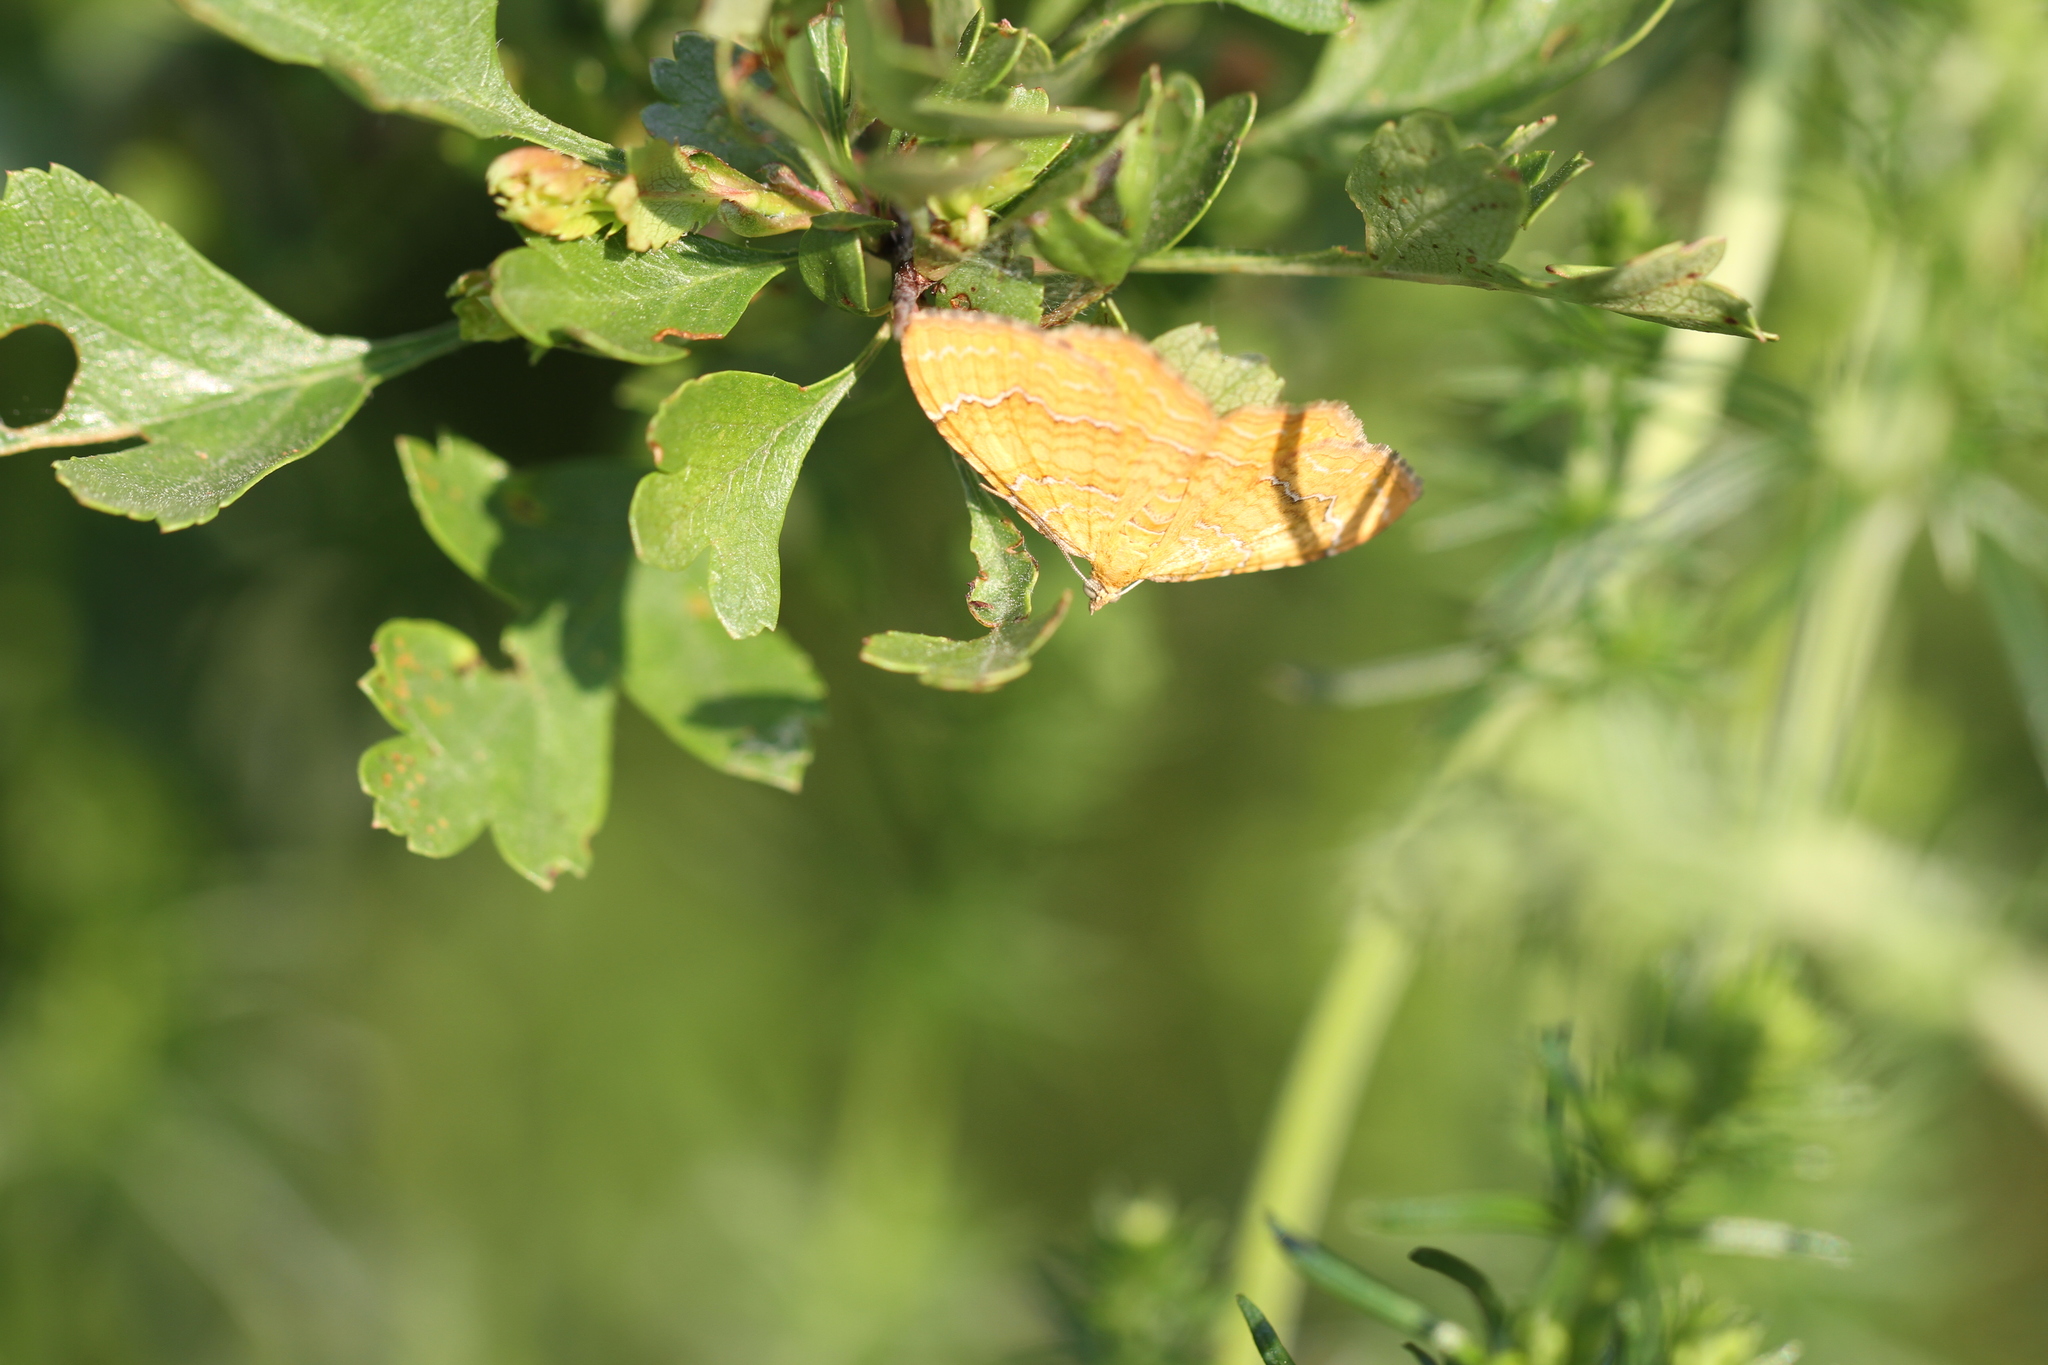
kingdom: Animalia
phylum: Arthropoda
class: Insecta
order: Lepidoptera
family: Geometridae
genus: Camptogramma
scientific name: Camptogramma bilineata
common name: Yellow shell
